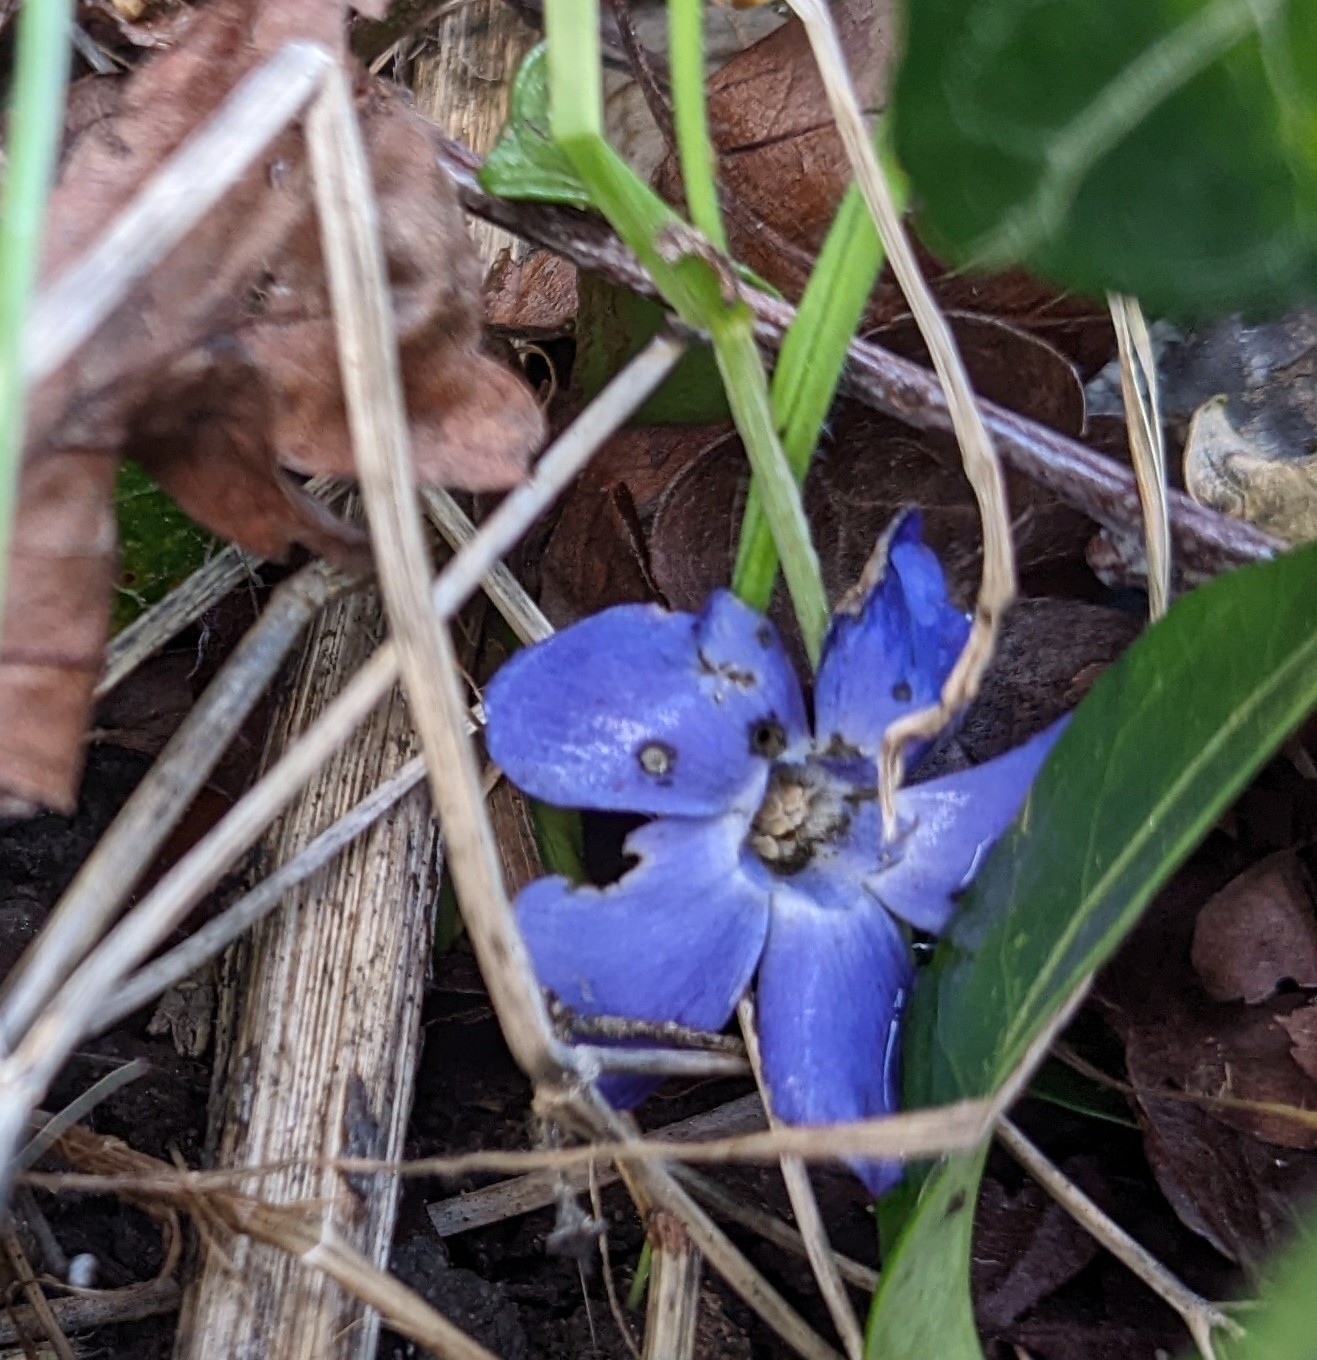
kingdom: Plantae
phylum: Tracheophyta
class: Magnoliopsida
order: Gentianales
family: Apocynaceae
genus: Vinca
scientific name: Vinca minor
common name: Lesser periwinkle
